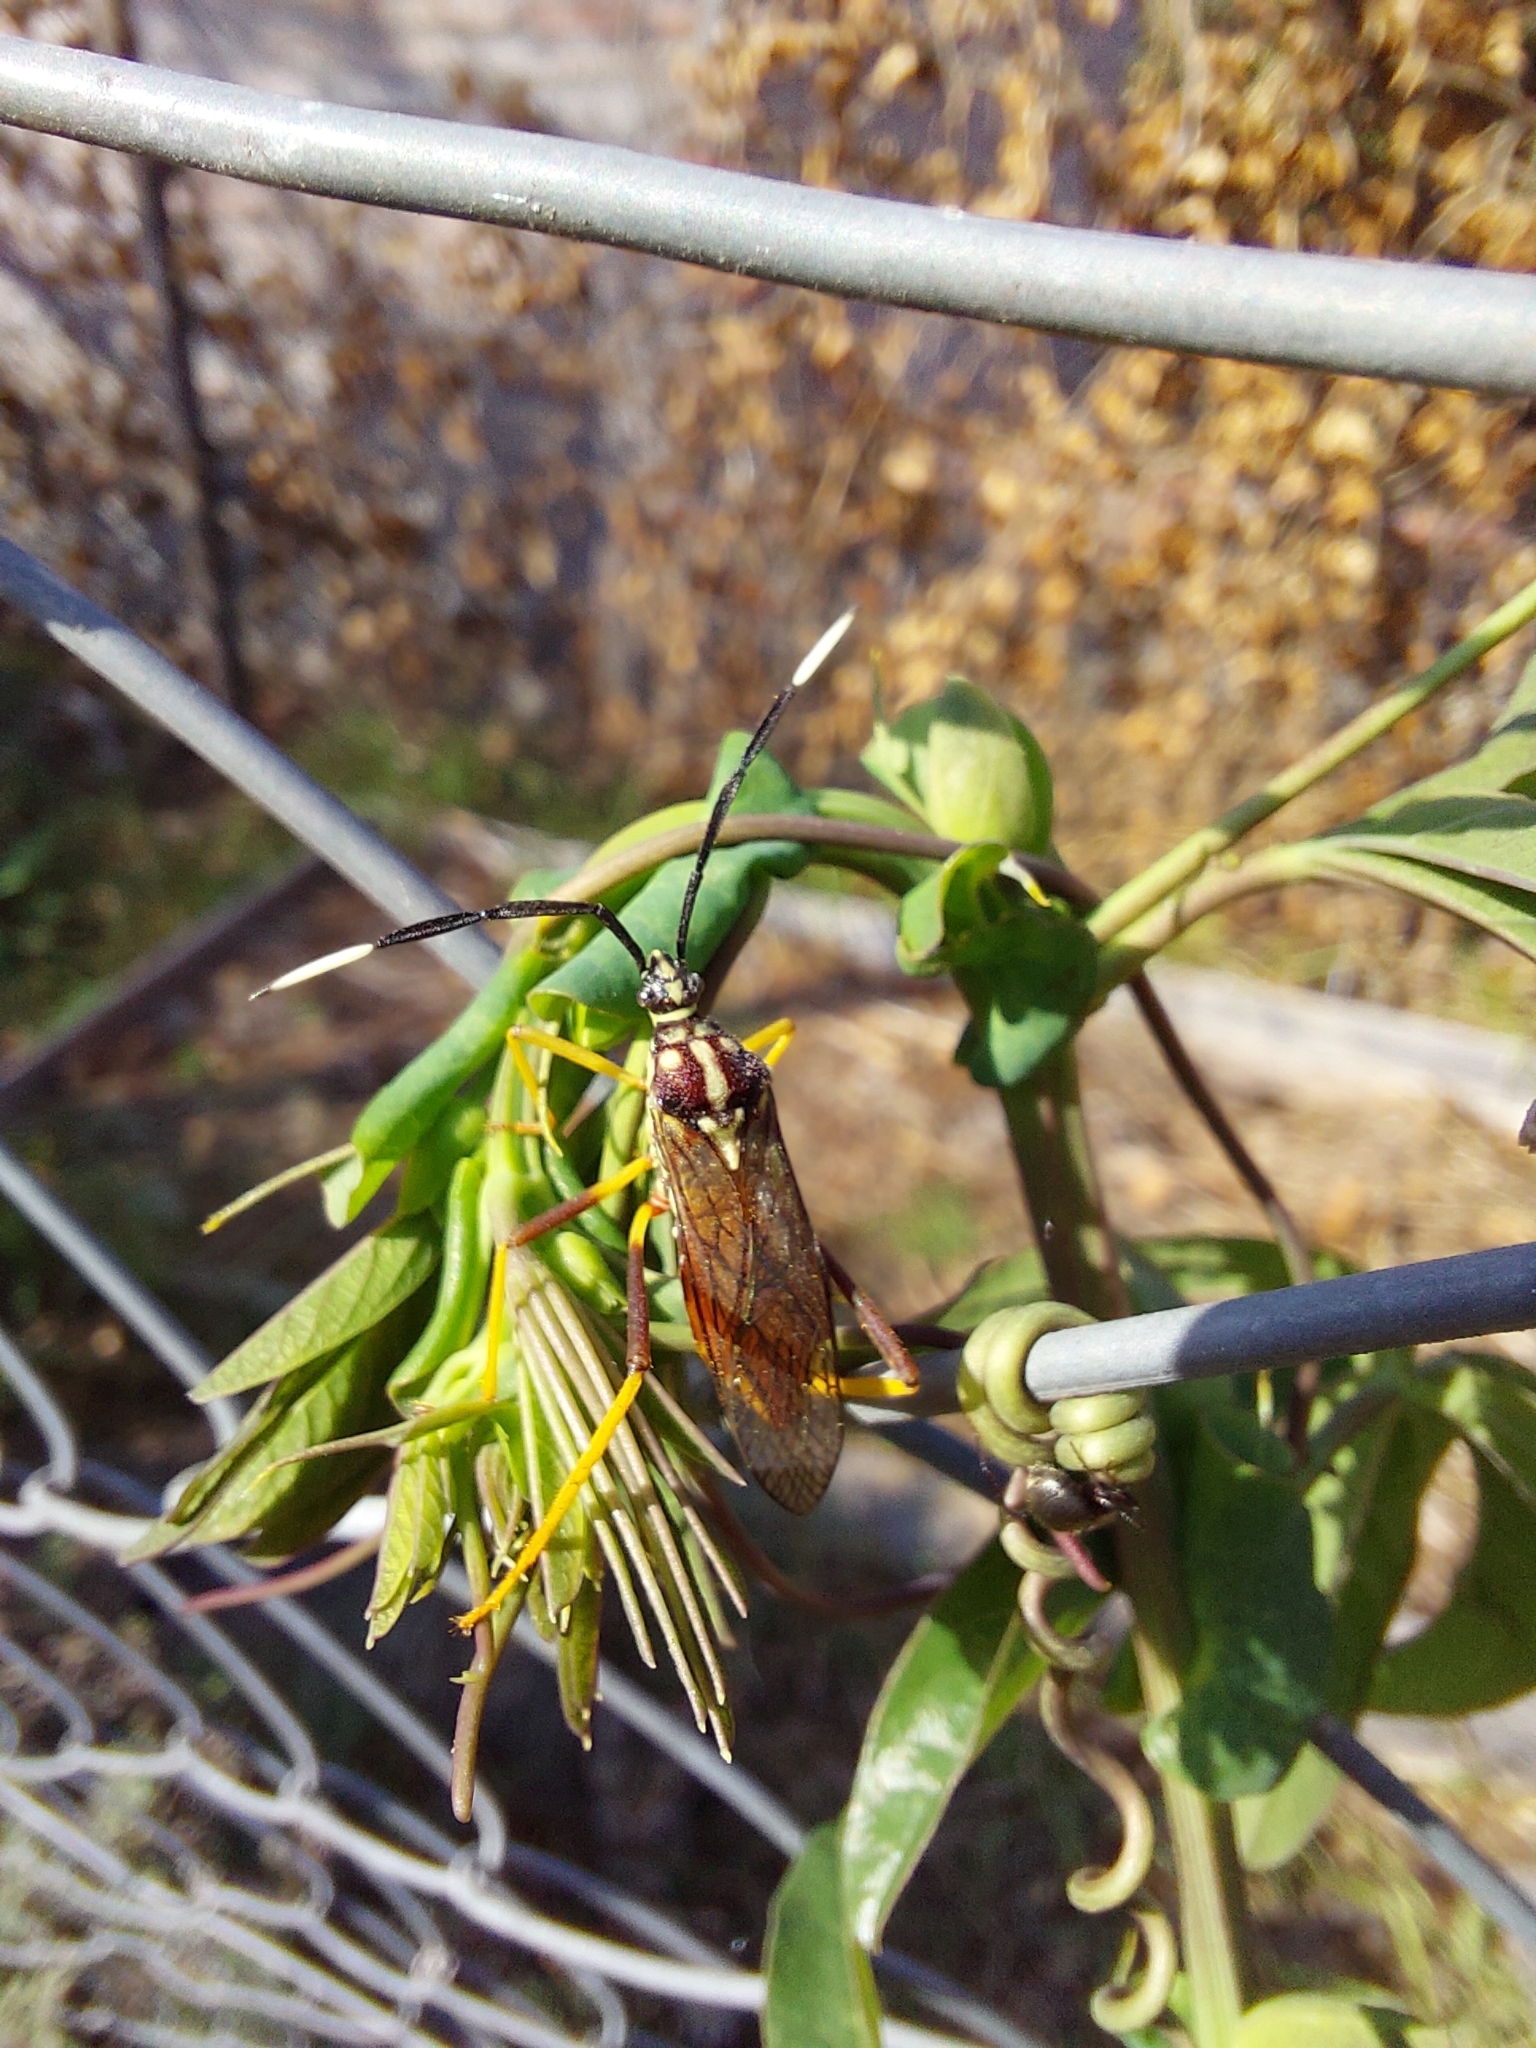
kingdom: Animalia
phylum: Arthropoda
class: Insecta
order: Hemiptera
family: Coreidae
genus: Holhymenia
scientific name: Holhymenia histrio
